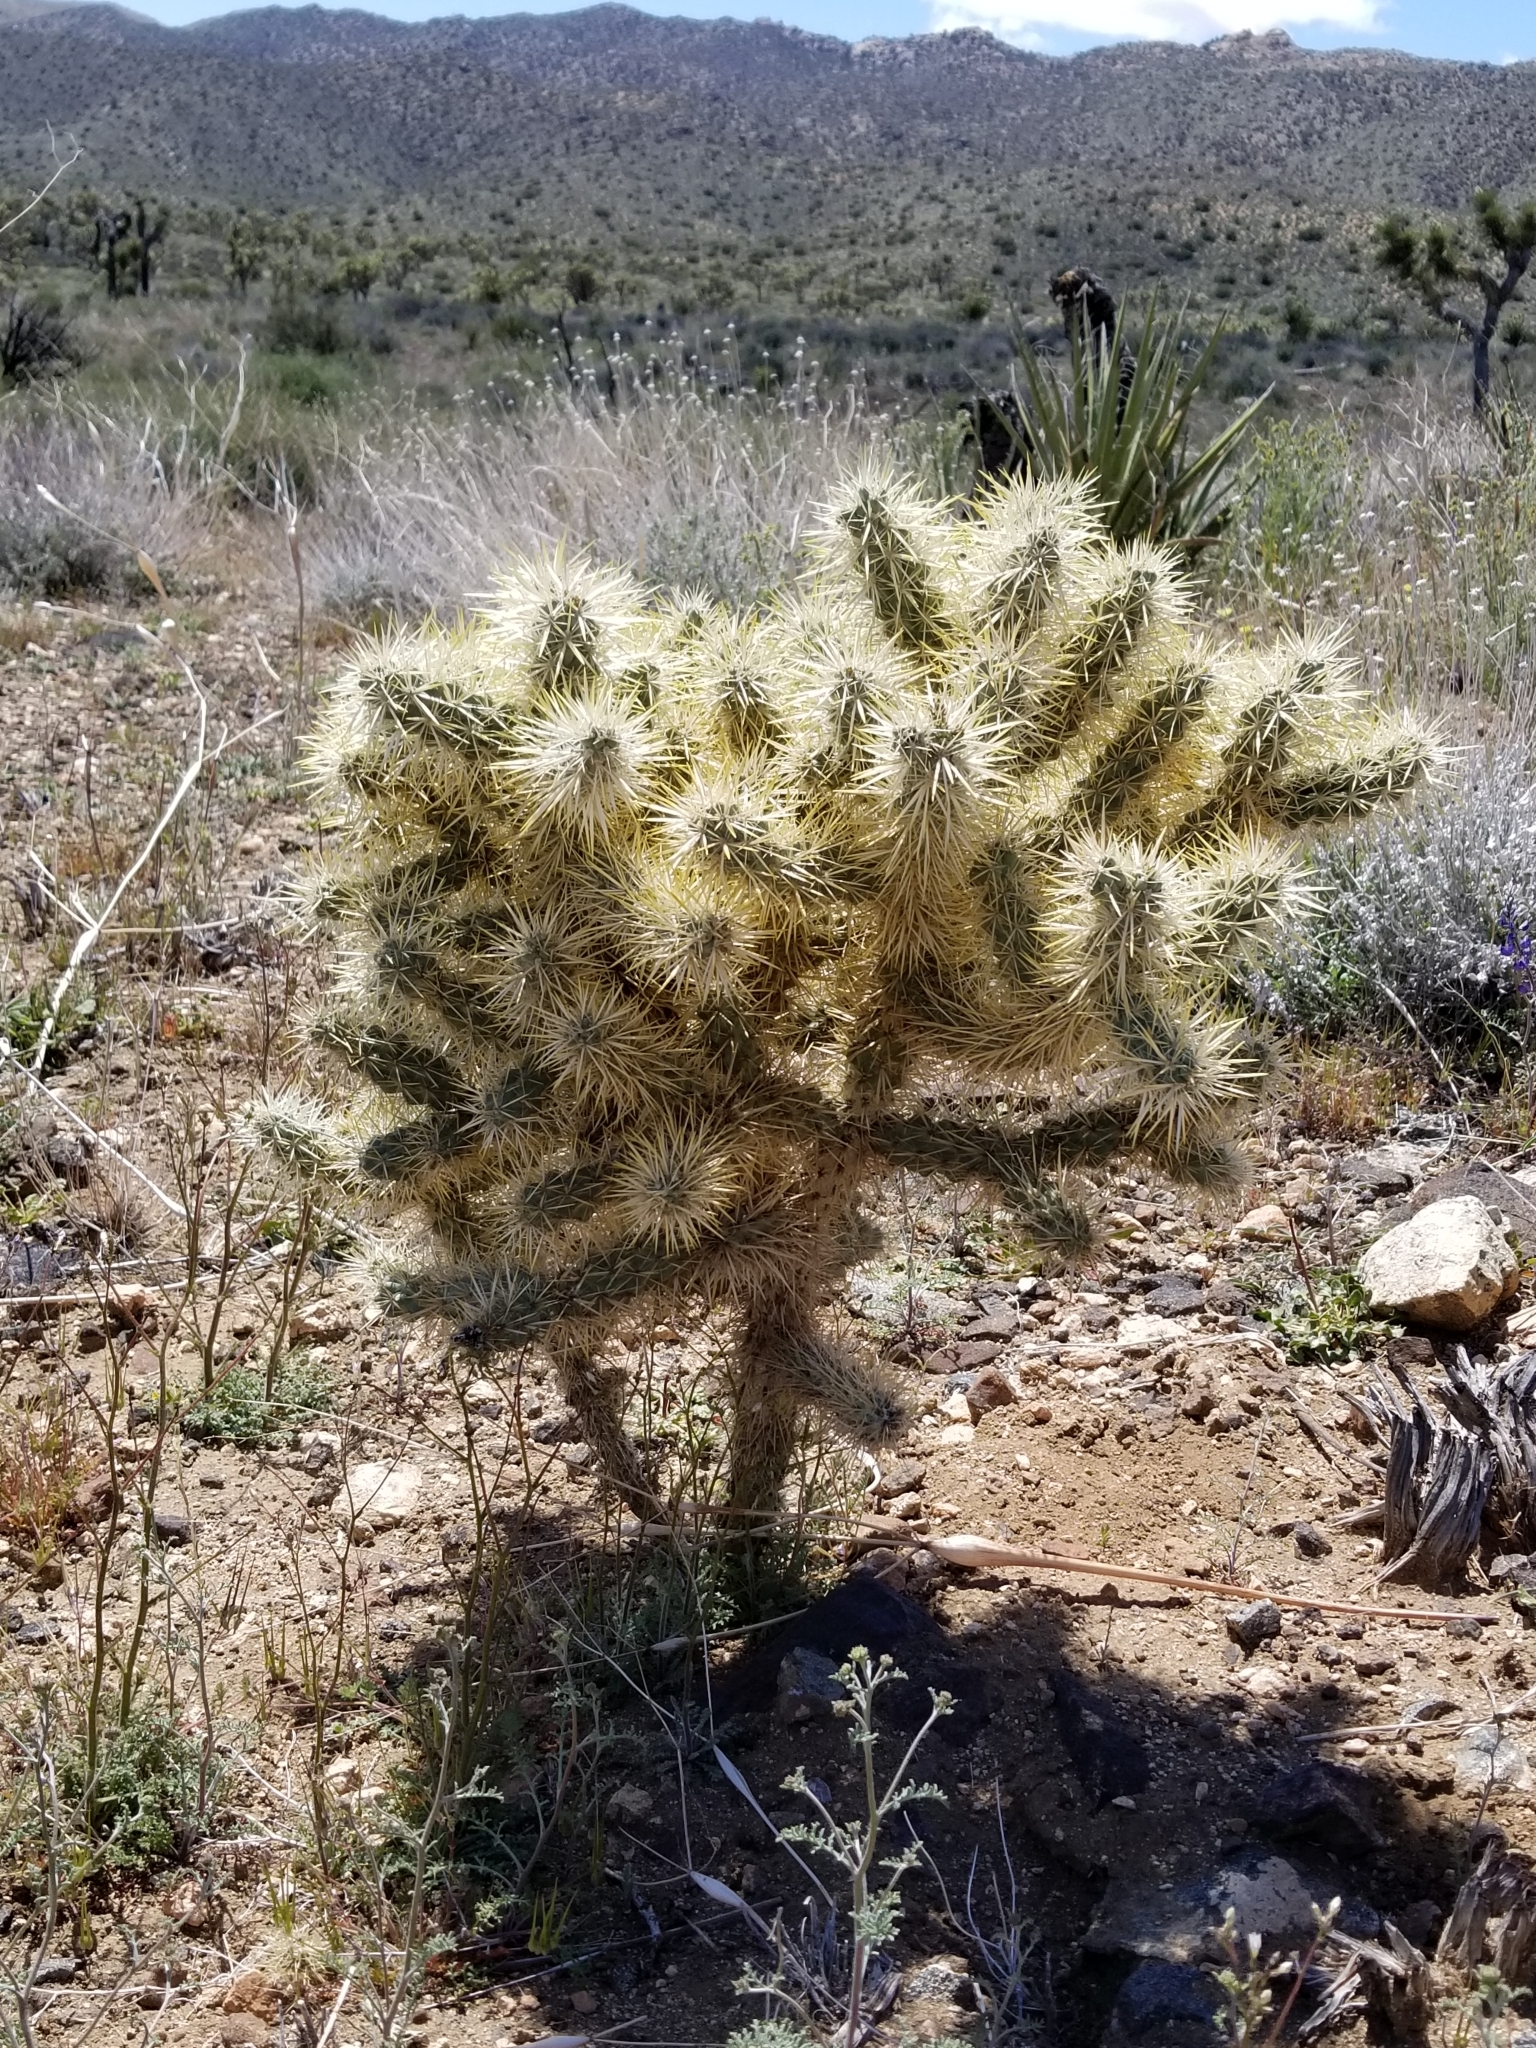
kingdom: Plantae
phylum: Tracheophyta
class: Magnoliopsida
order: Caryophyllales
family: Cactaceae
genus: Cylindropuntia
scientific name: Cylindropuntia echinocarpa
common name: Ground cholla
